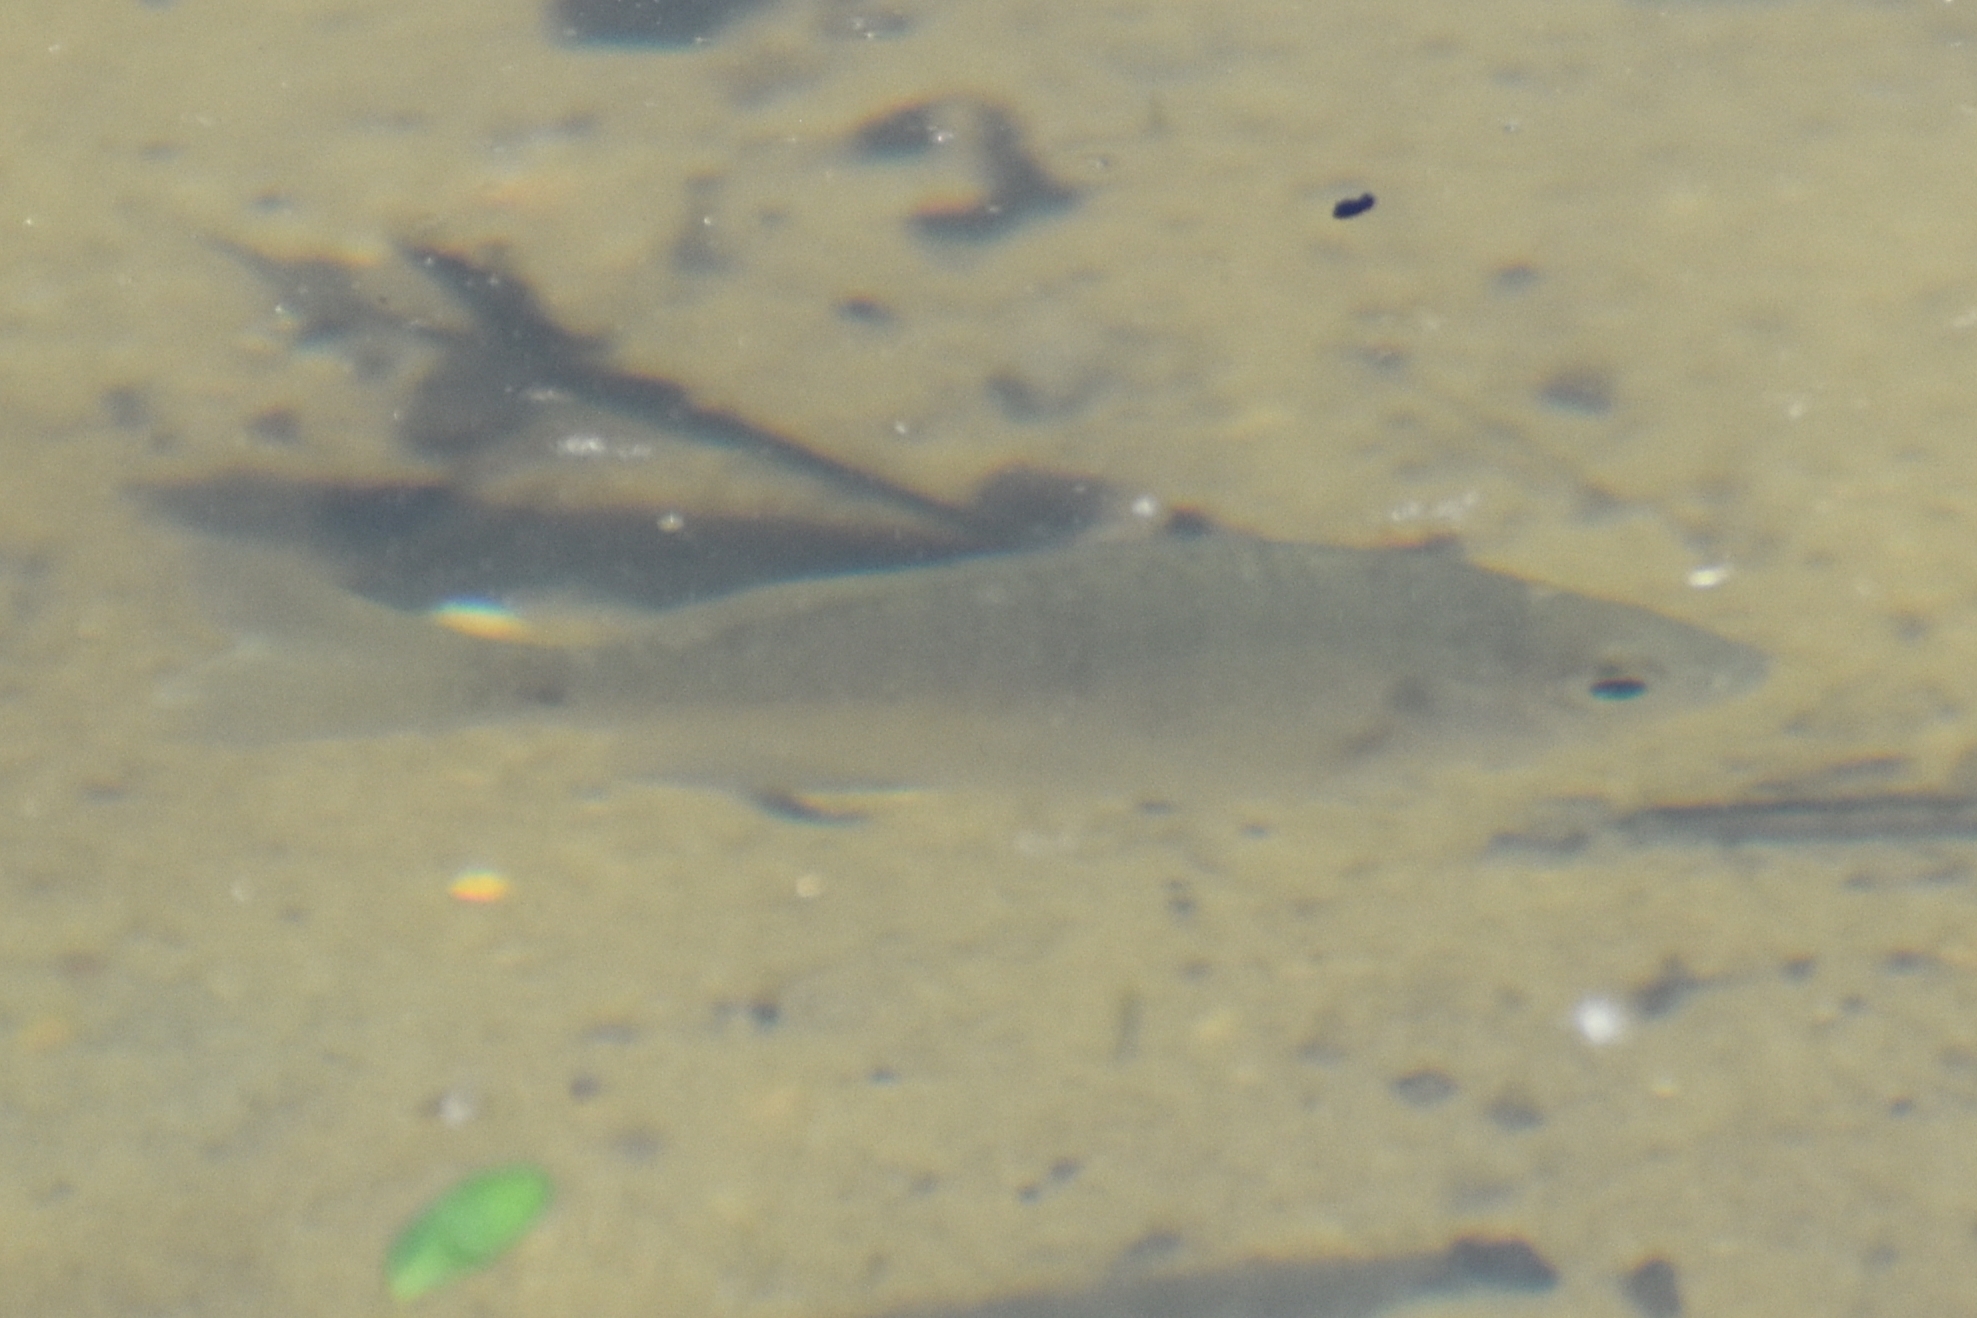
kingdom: Animalia
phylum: Chordata
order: Perciformes
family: Centrarchidae
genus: Lepomis
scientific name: Lepomis macrochirus
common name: Bluegill
